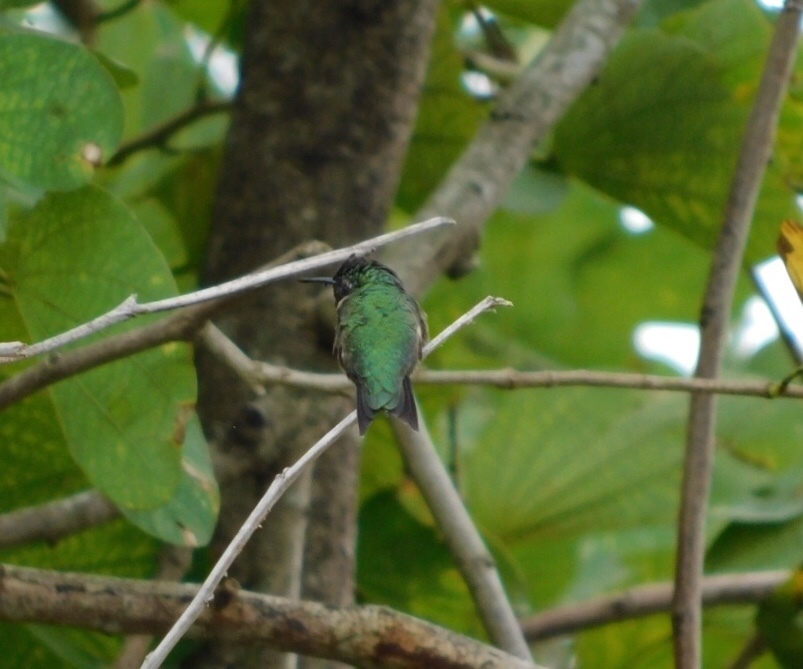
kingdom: Animalia
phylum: Chordata
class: Aves
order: Apodiformes
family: Trochilidae
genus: Archilochus
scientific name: Archilochus colubris
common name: Ruby-throated hummingbird
